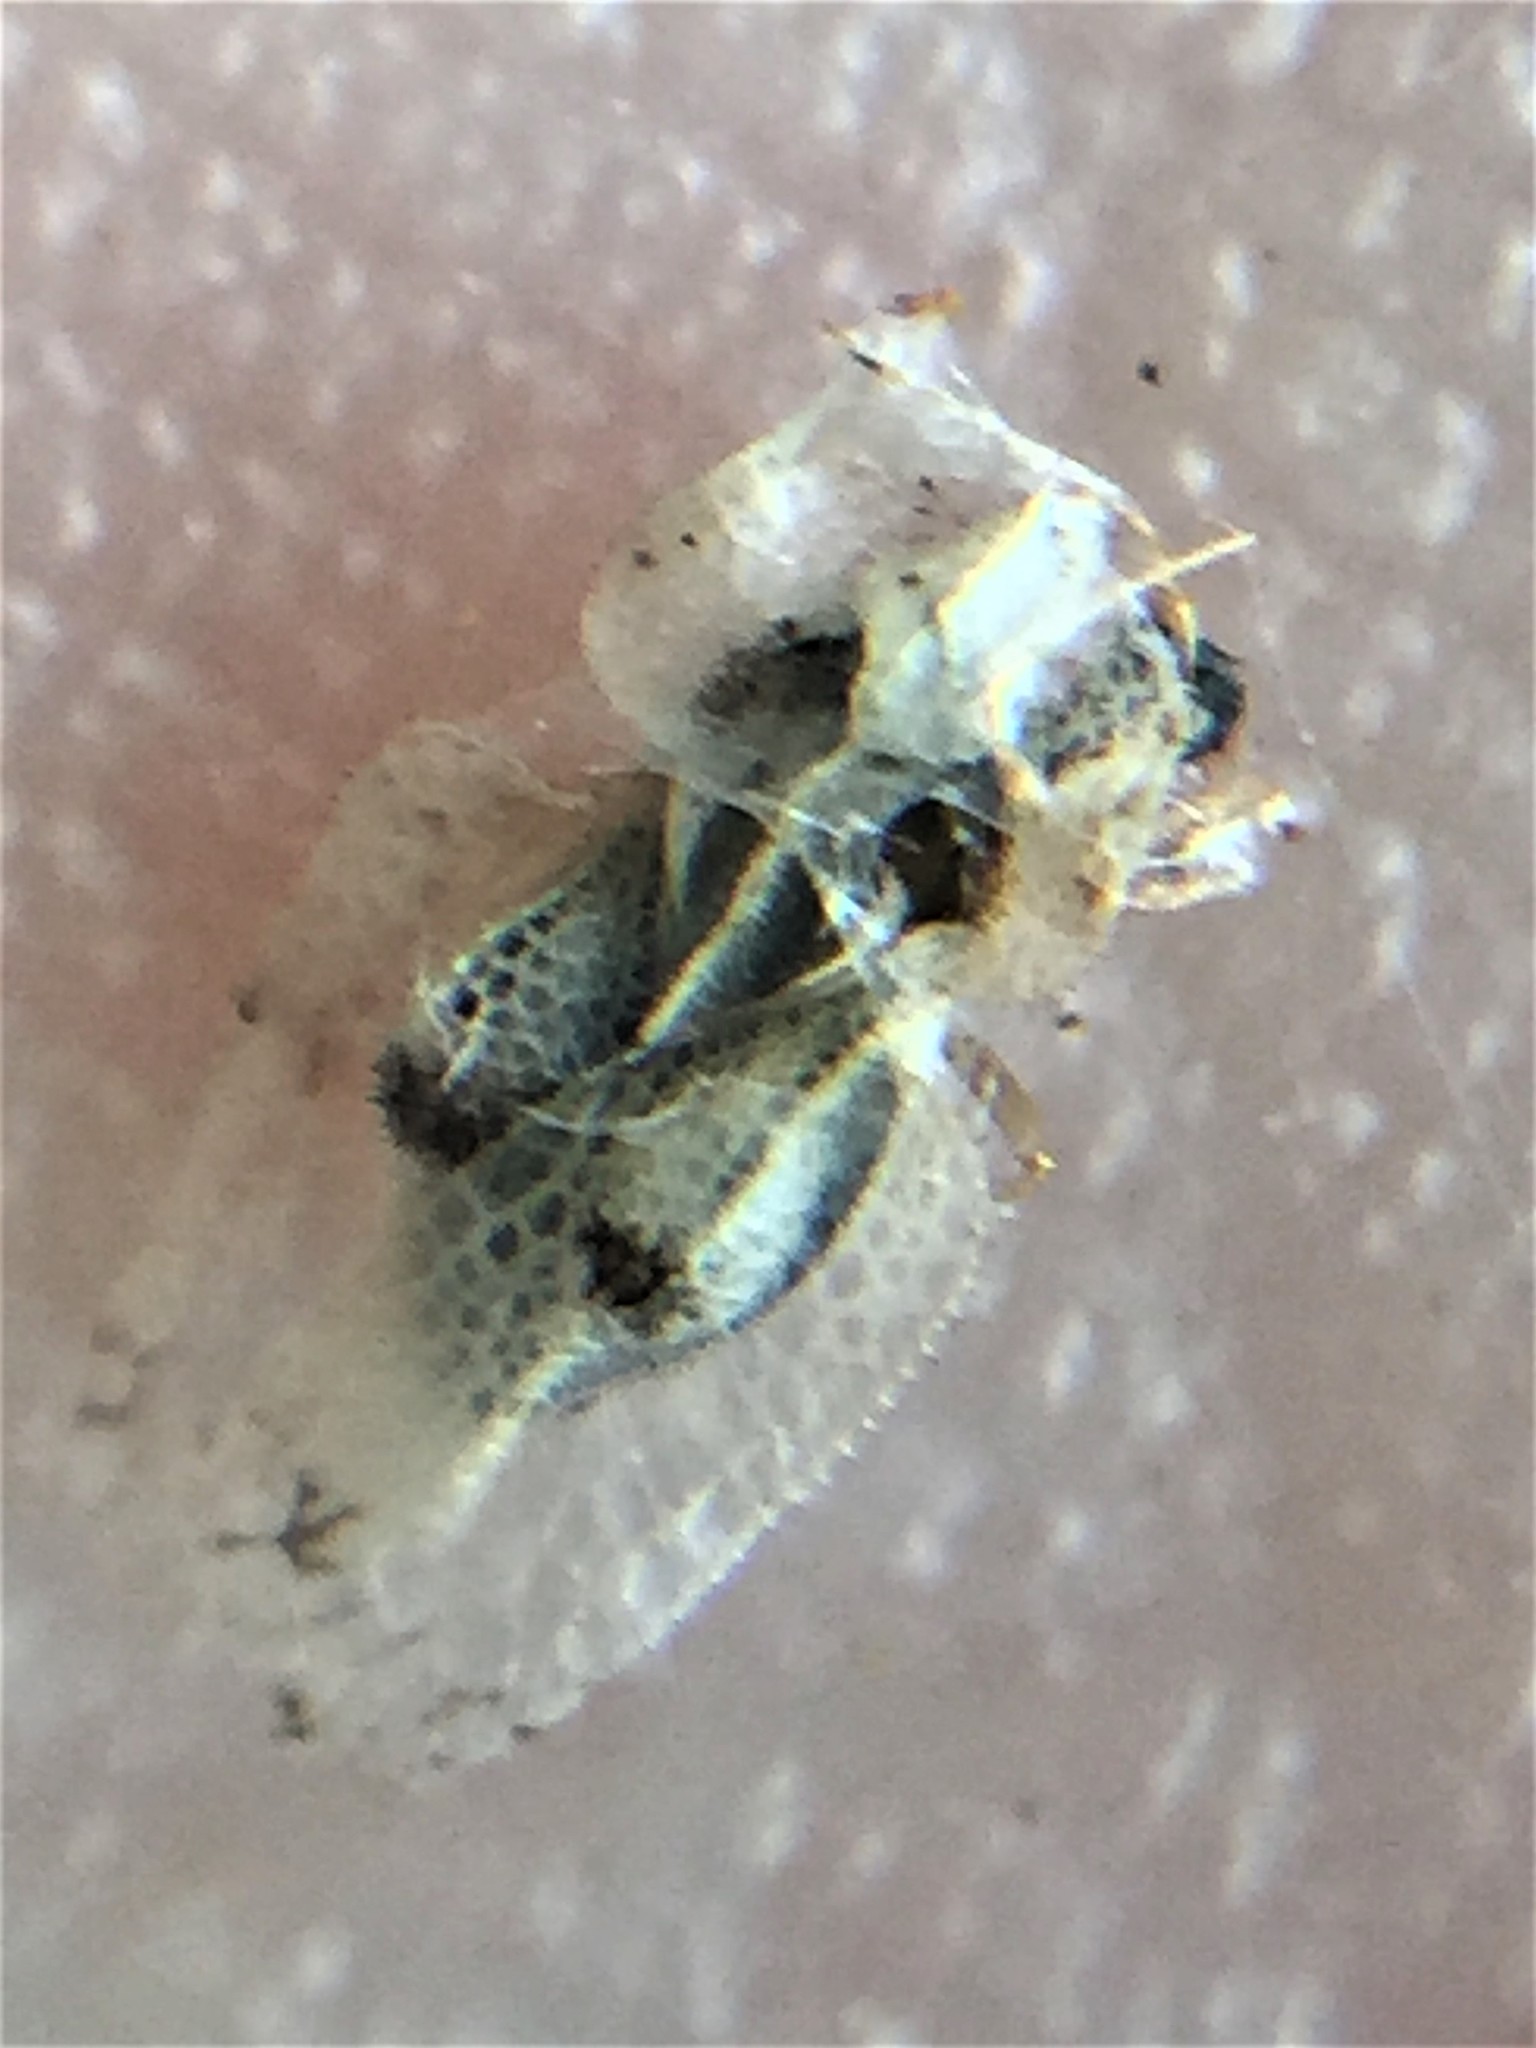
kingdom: Animalia
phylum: Arthropoda
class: Insecta
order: Hemiptera
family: Tingidae
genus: Corythucha
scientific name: Corythucha ciliata
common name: Sycamore lace bug
